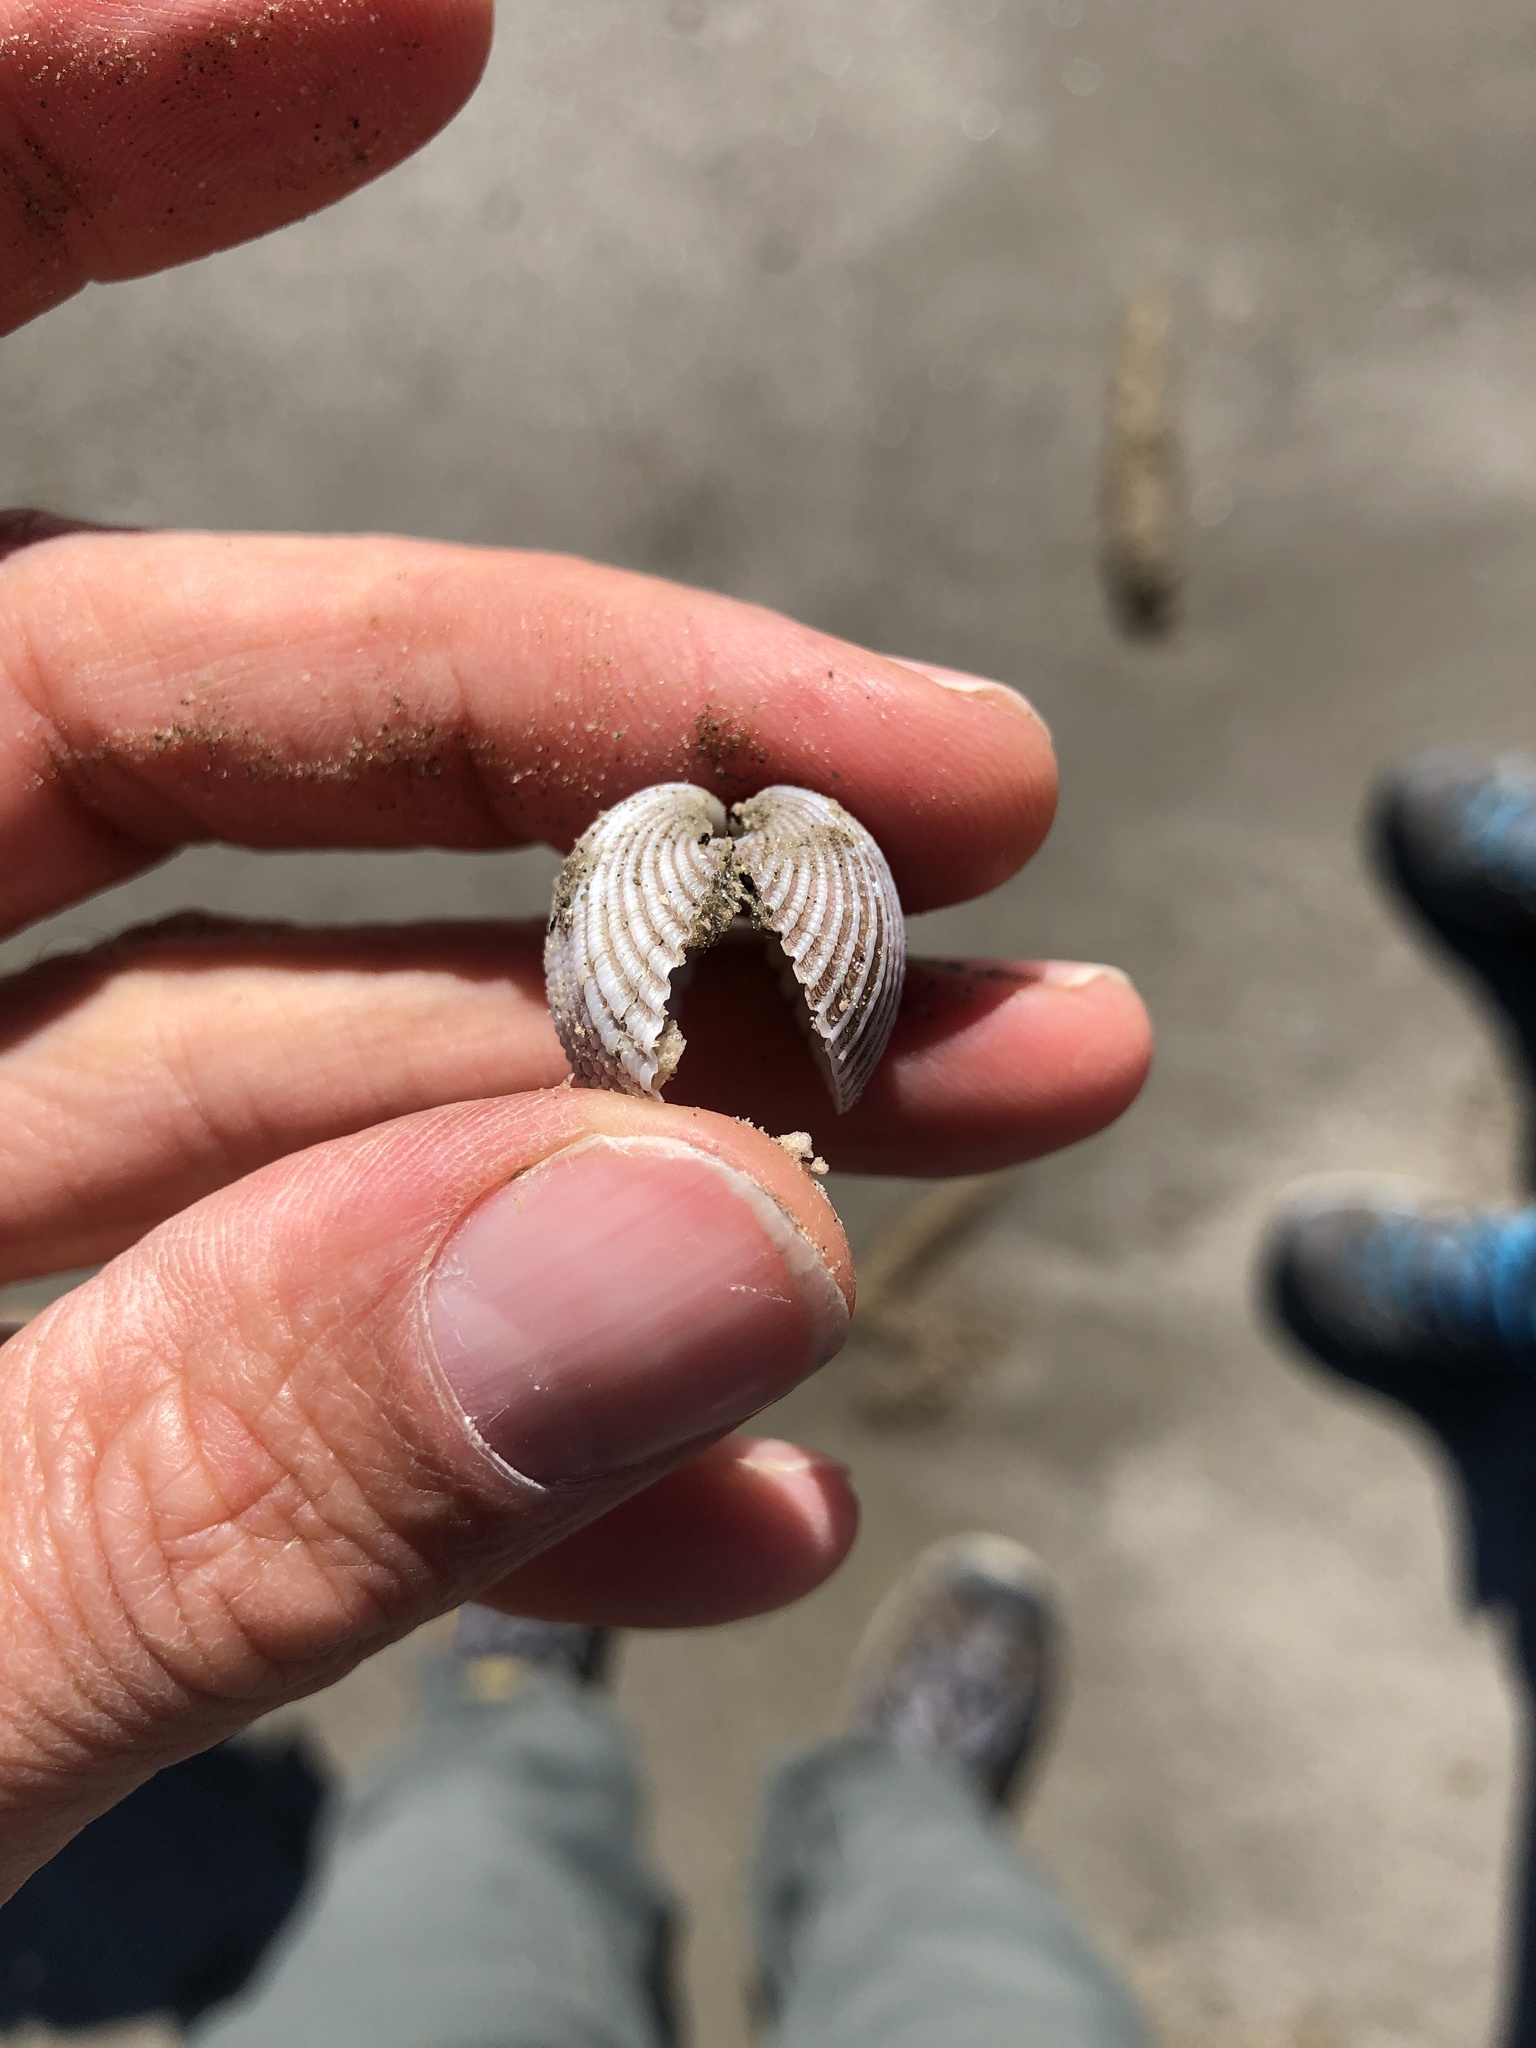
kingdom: Animalia
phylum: Mollusca
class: Bivalvia
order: Arcida
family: Arcidae
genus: Anadara
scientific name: Anadara brasiliana
